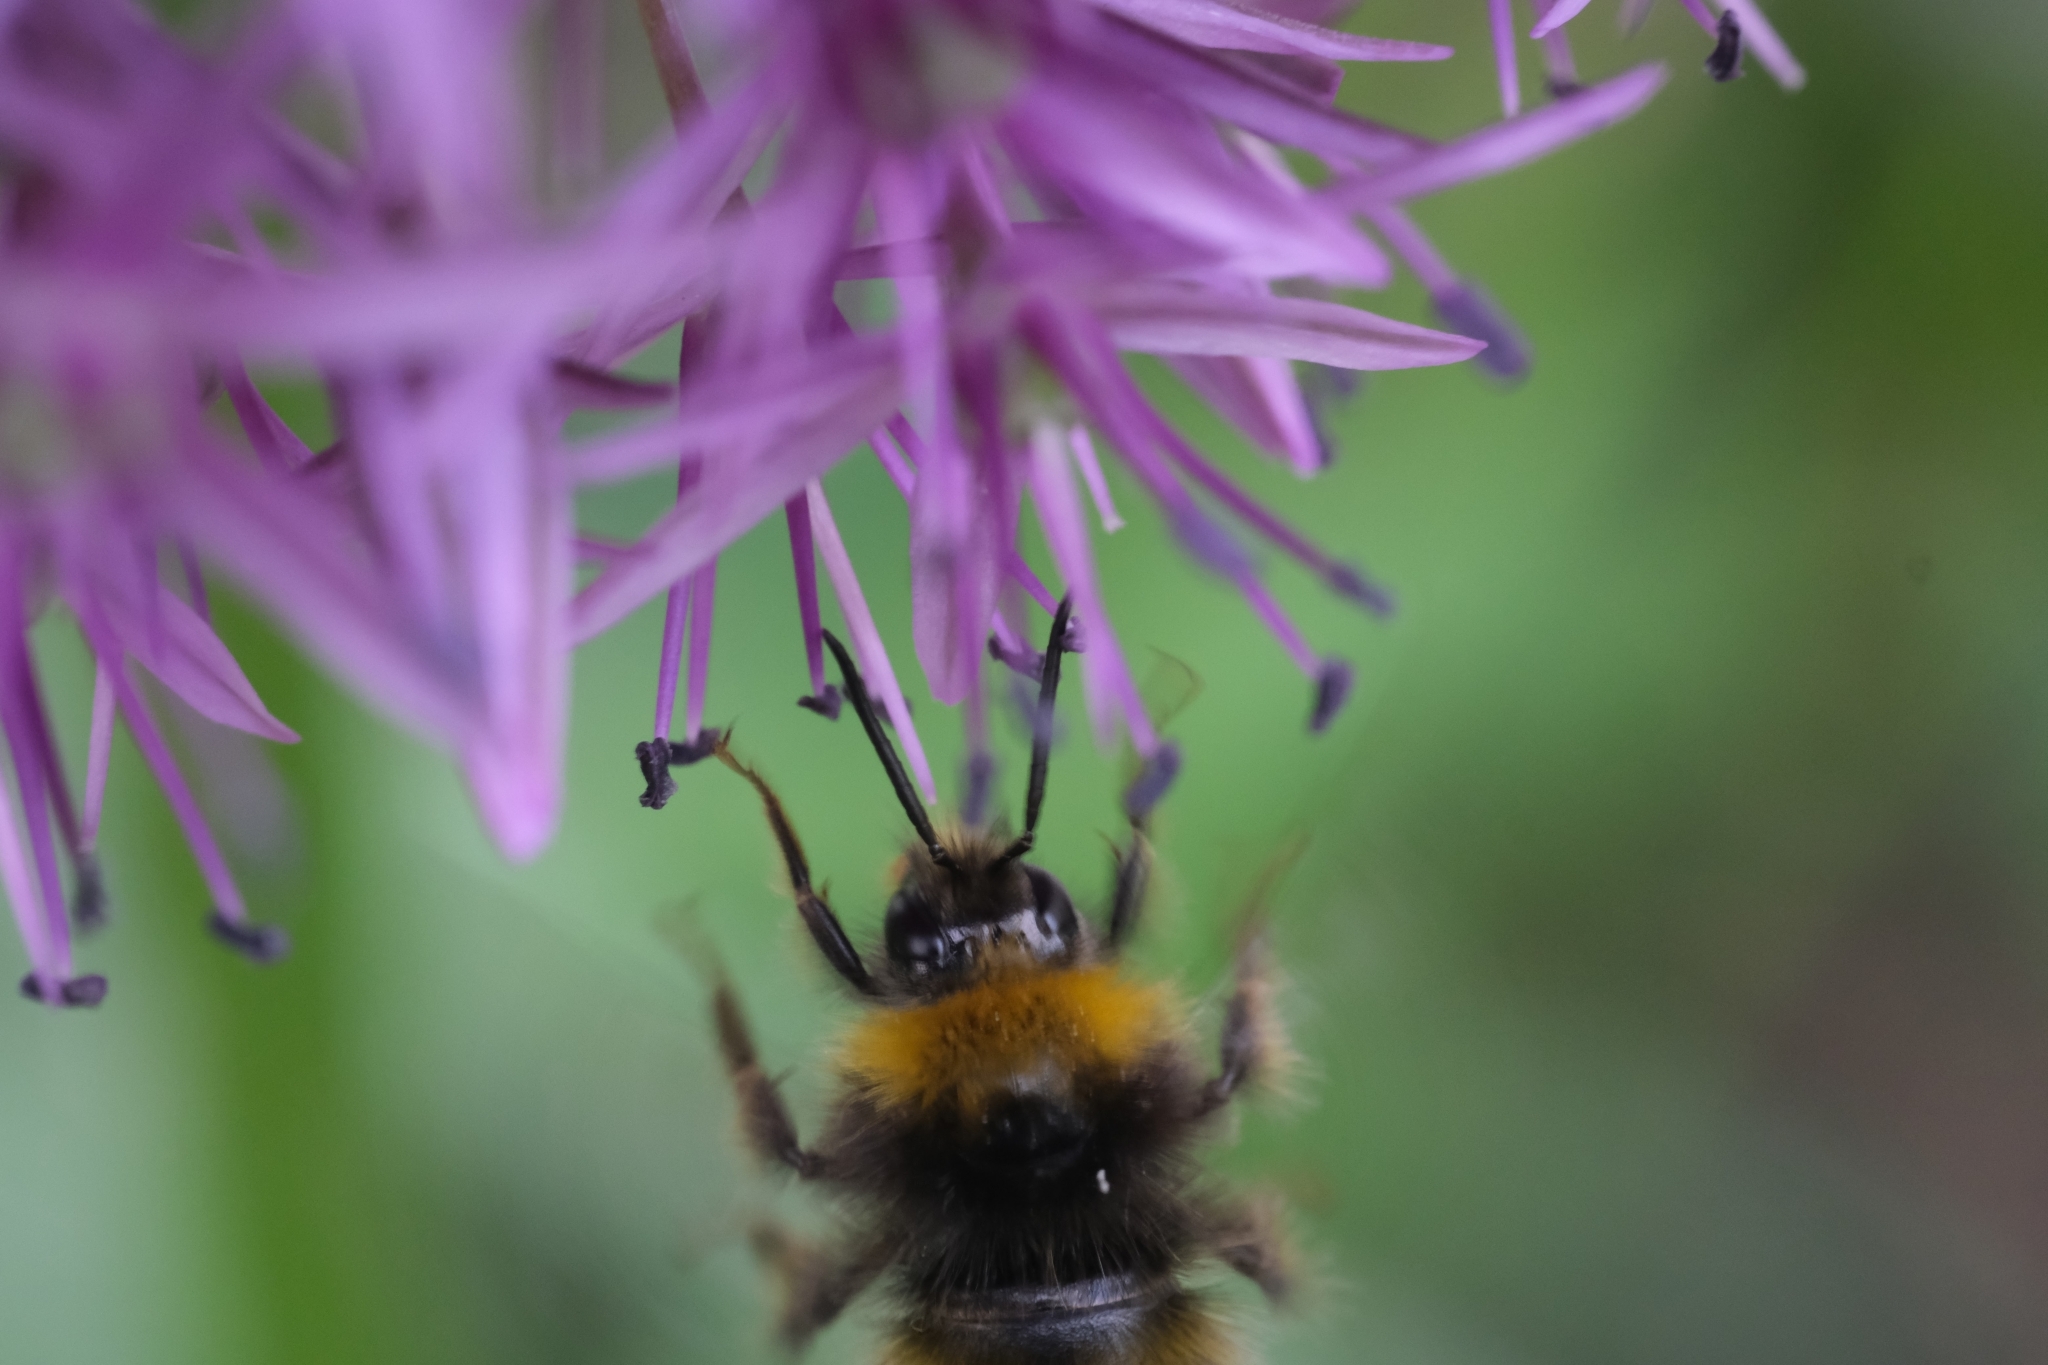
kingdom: Animalia
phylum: Arthropoda
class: Insecta
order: Hymenoptera
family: Apidae
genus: Bombus
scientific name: Bombus pratorum
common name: Early humble-bee
